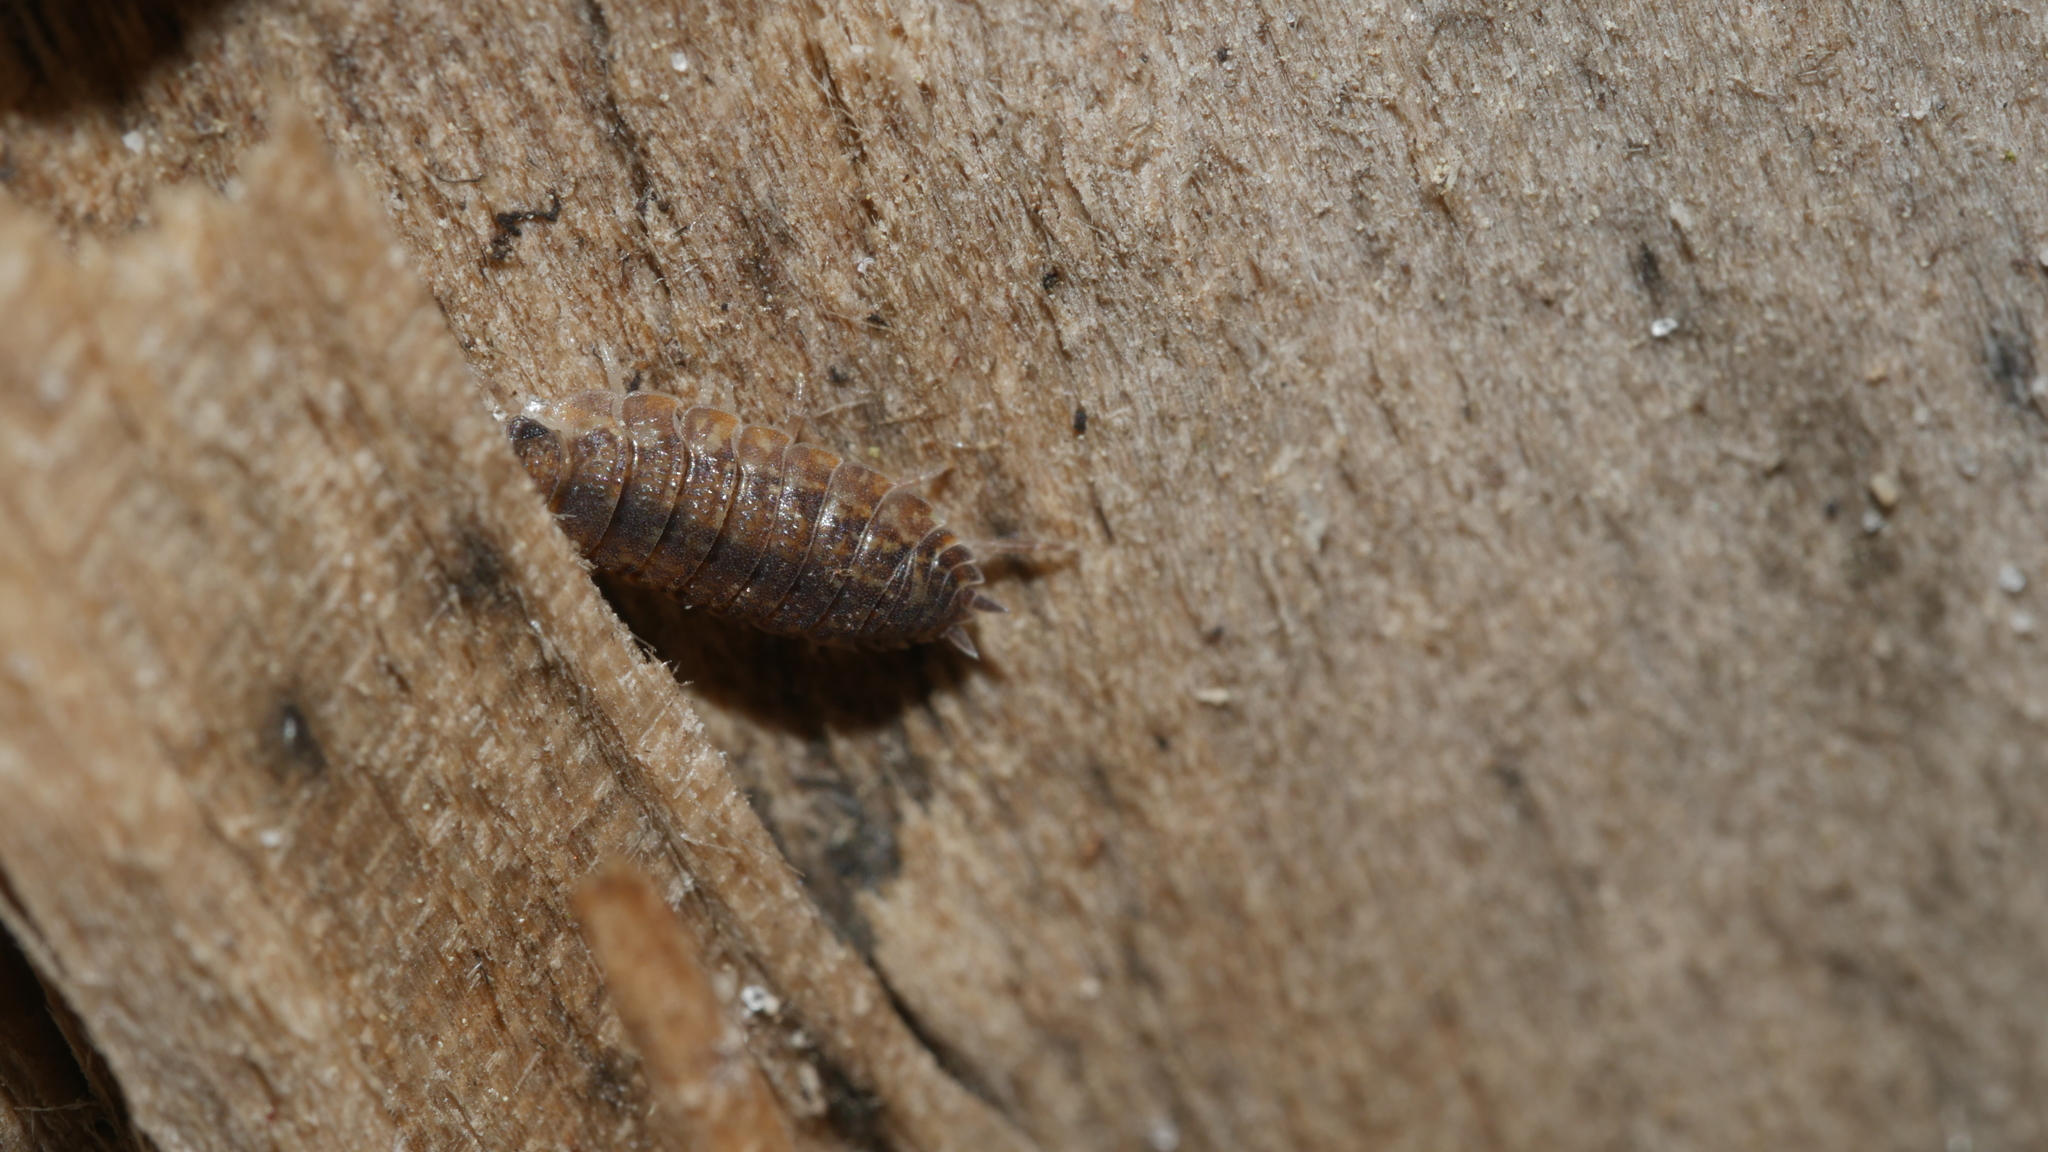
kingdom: Animalia
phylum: Arthropoda
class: Malacostraca
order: Isopoda
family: Porcellionidae
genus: Porcellio
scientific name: Porcellio scaber
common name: Common rough woodlouse
